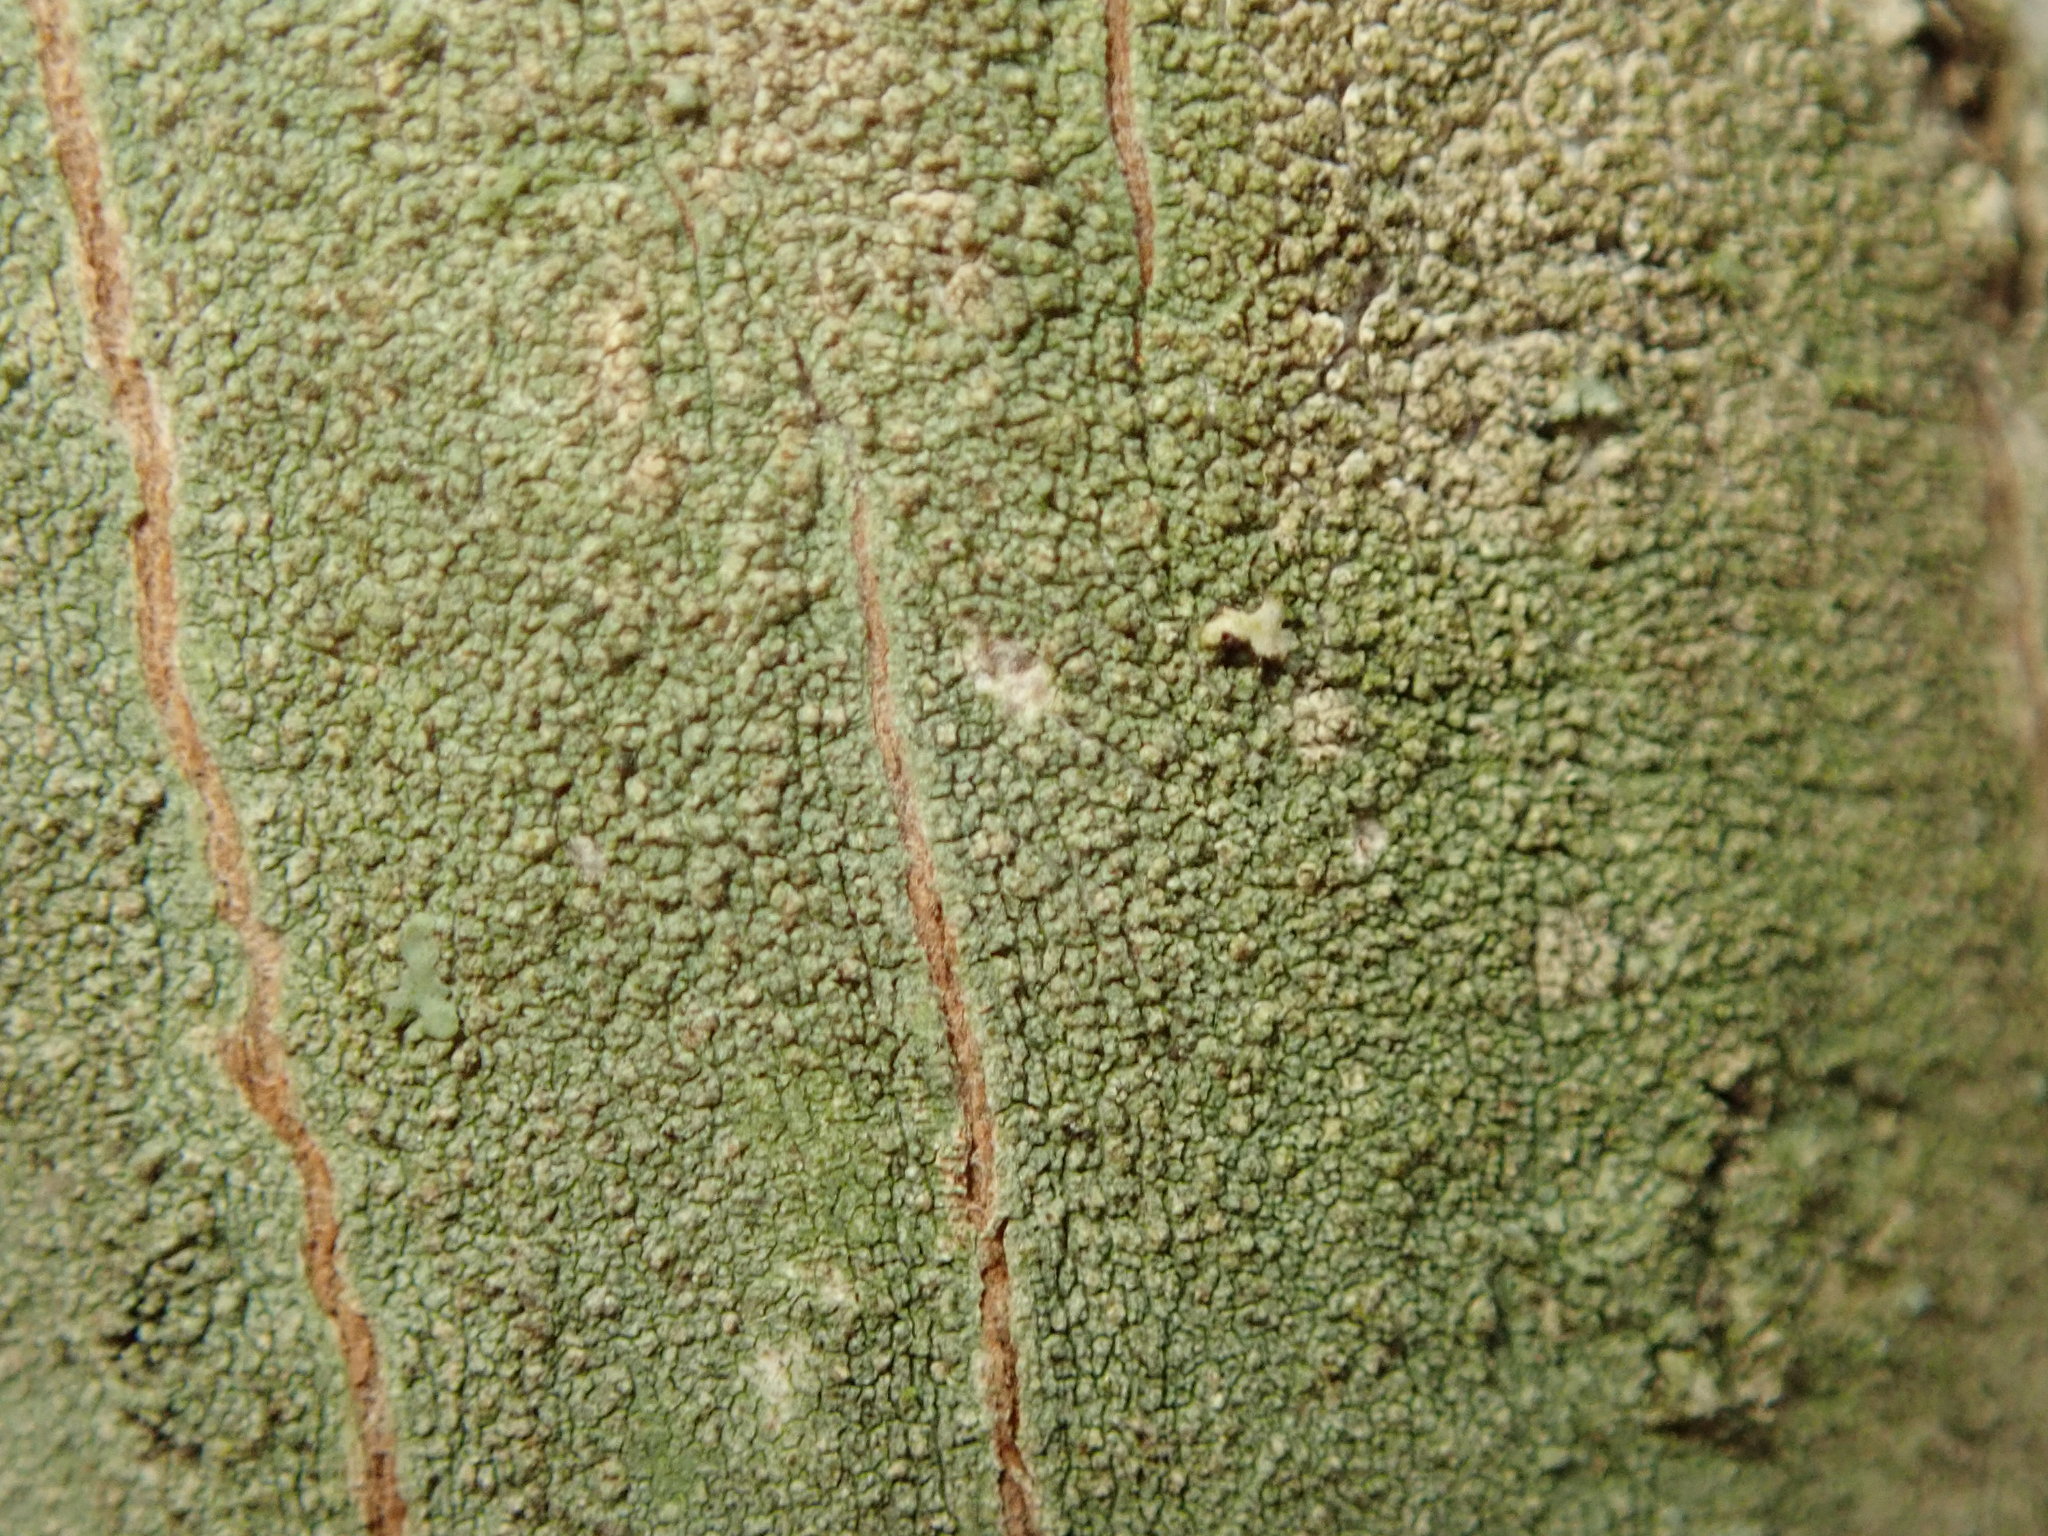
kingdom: Fungi
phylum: Ascomycota
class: Lecanoromycetes
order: Lecanorales
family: Lecanoraceae
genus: Traponora
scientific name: Traponora varians
